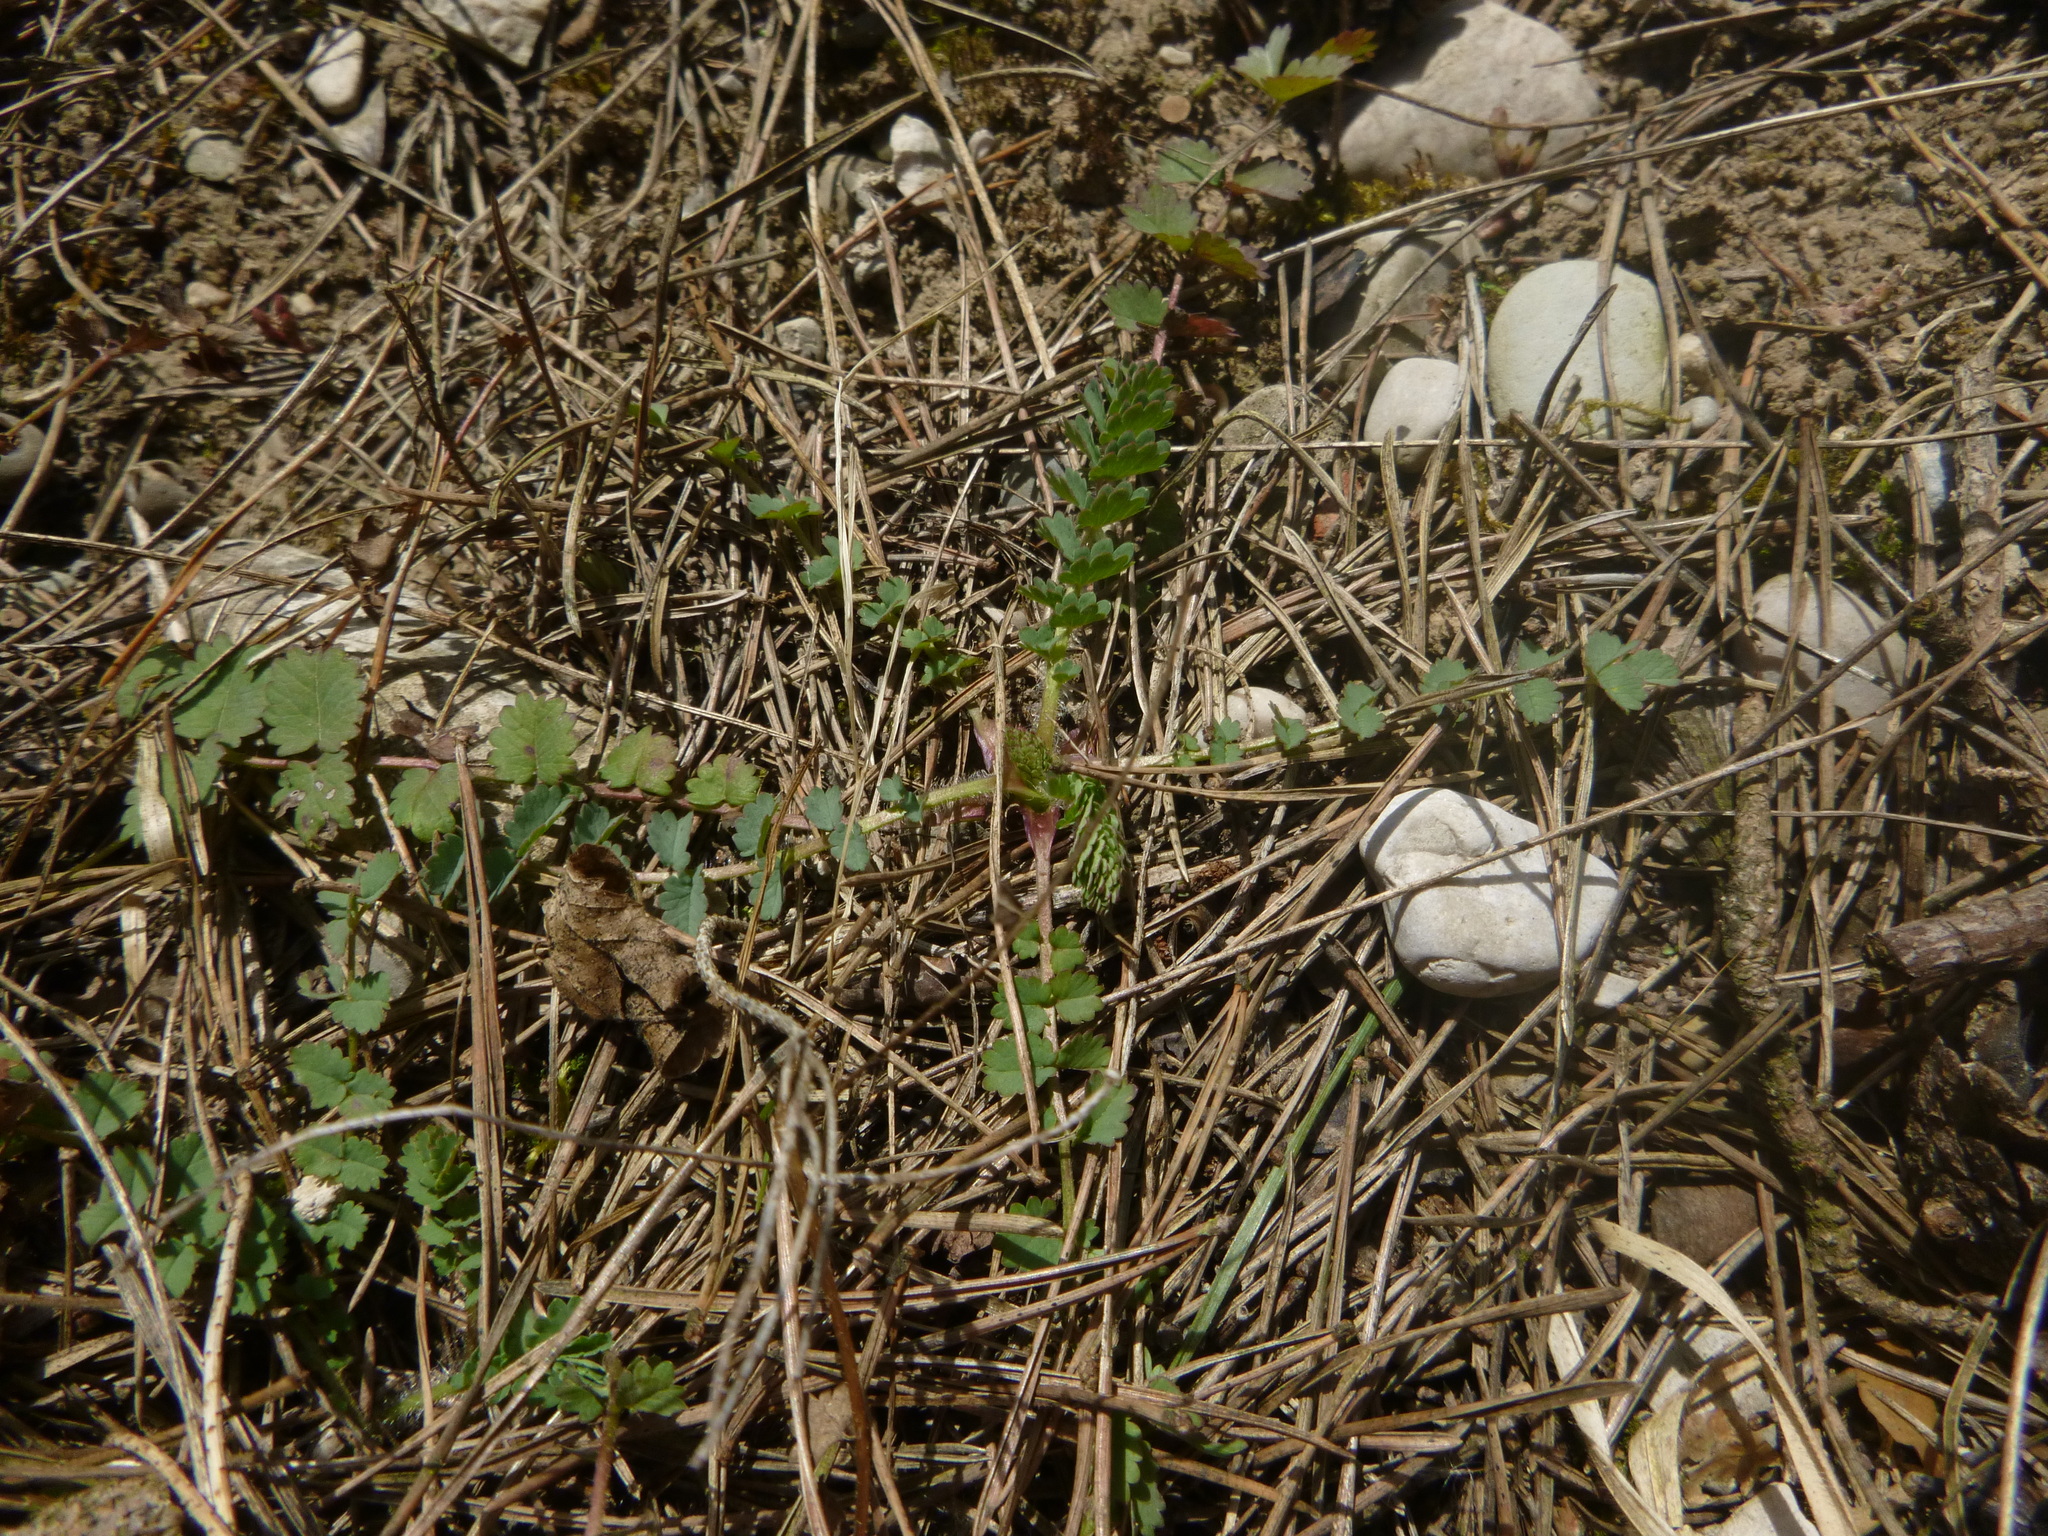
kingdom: Plantae
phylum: Tracheophyta
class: Magnoliopsida
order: Rosales
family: Rosaceae
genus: Poterium
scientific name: Poterium sanguisorba
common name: Salad burnet
